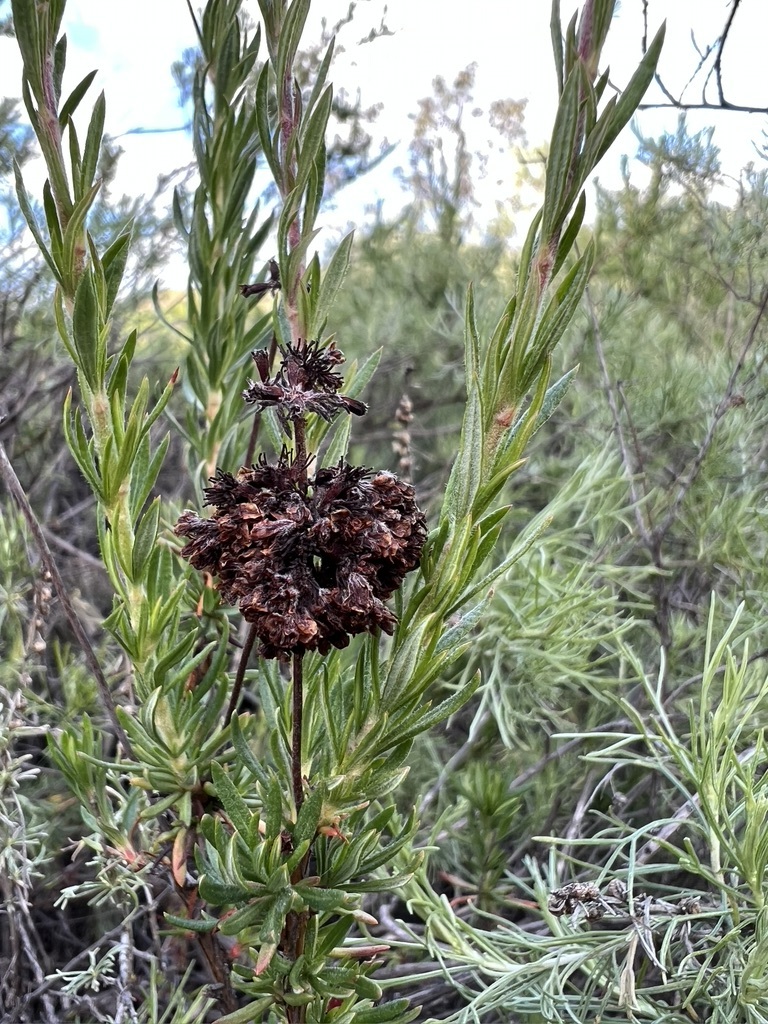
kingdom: Plantae
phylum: Tracheophyta
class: Magnoliopsida
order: Caryophyllales
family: Polygonaceae
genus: Eriogonum
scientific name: Eriogonum fasciculatum
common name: California wild buckwheat
